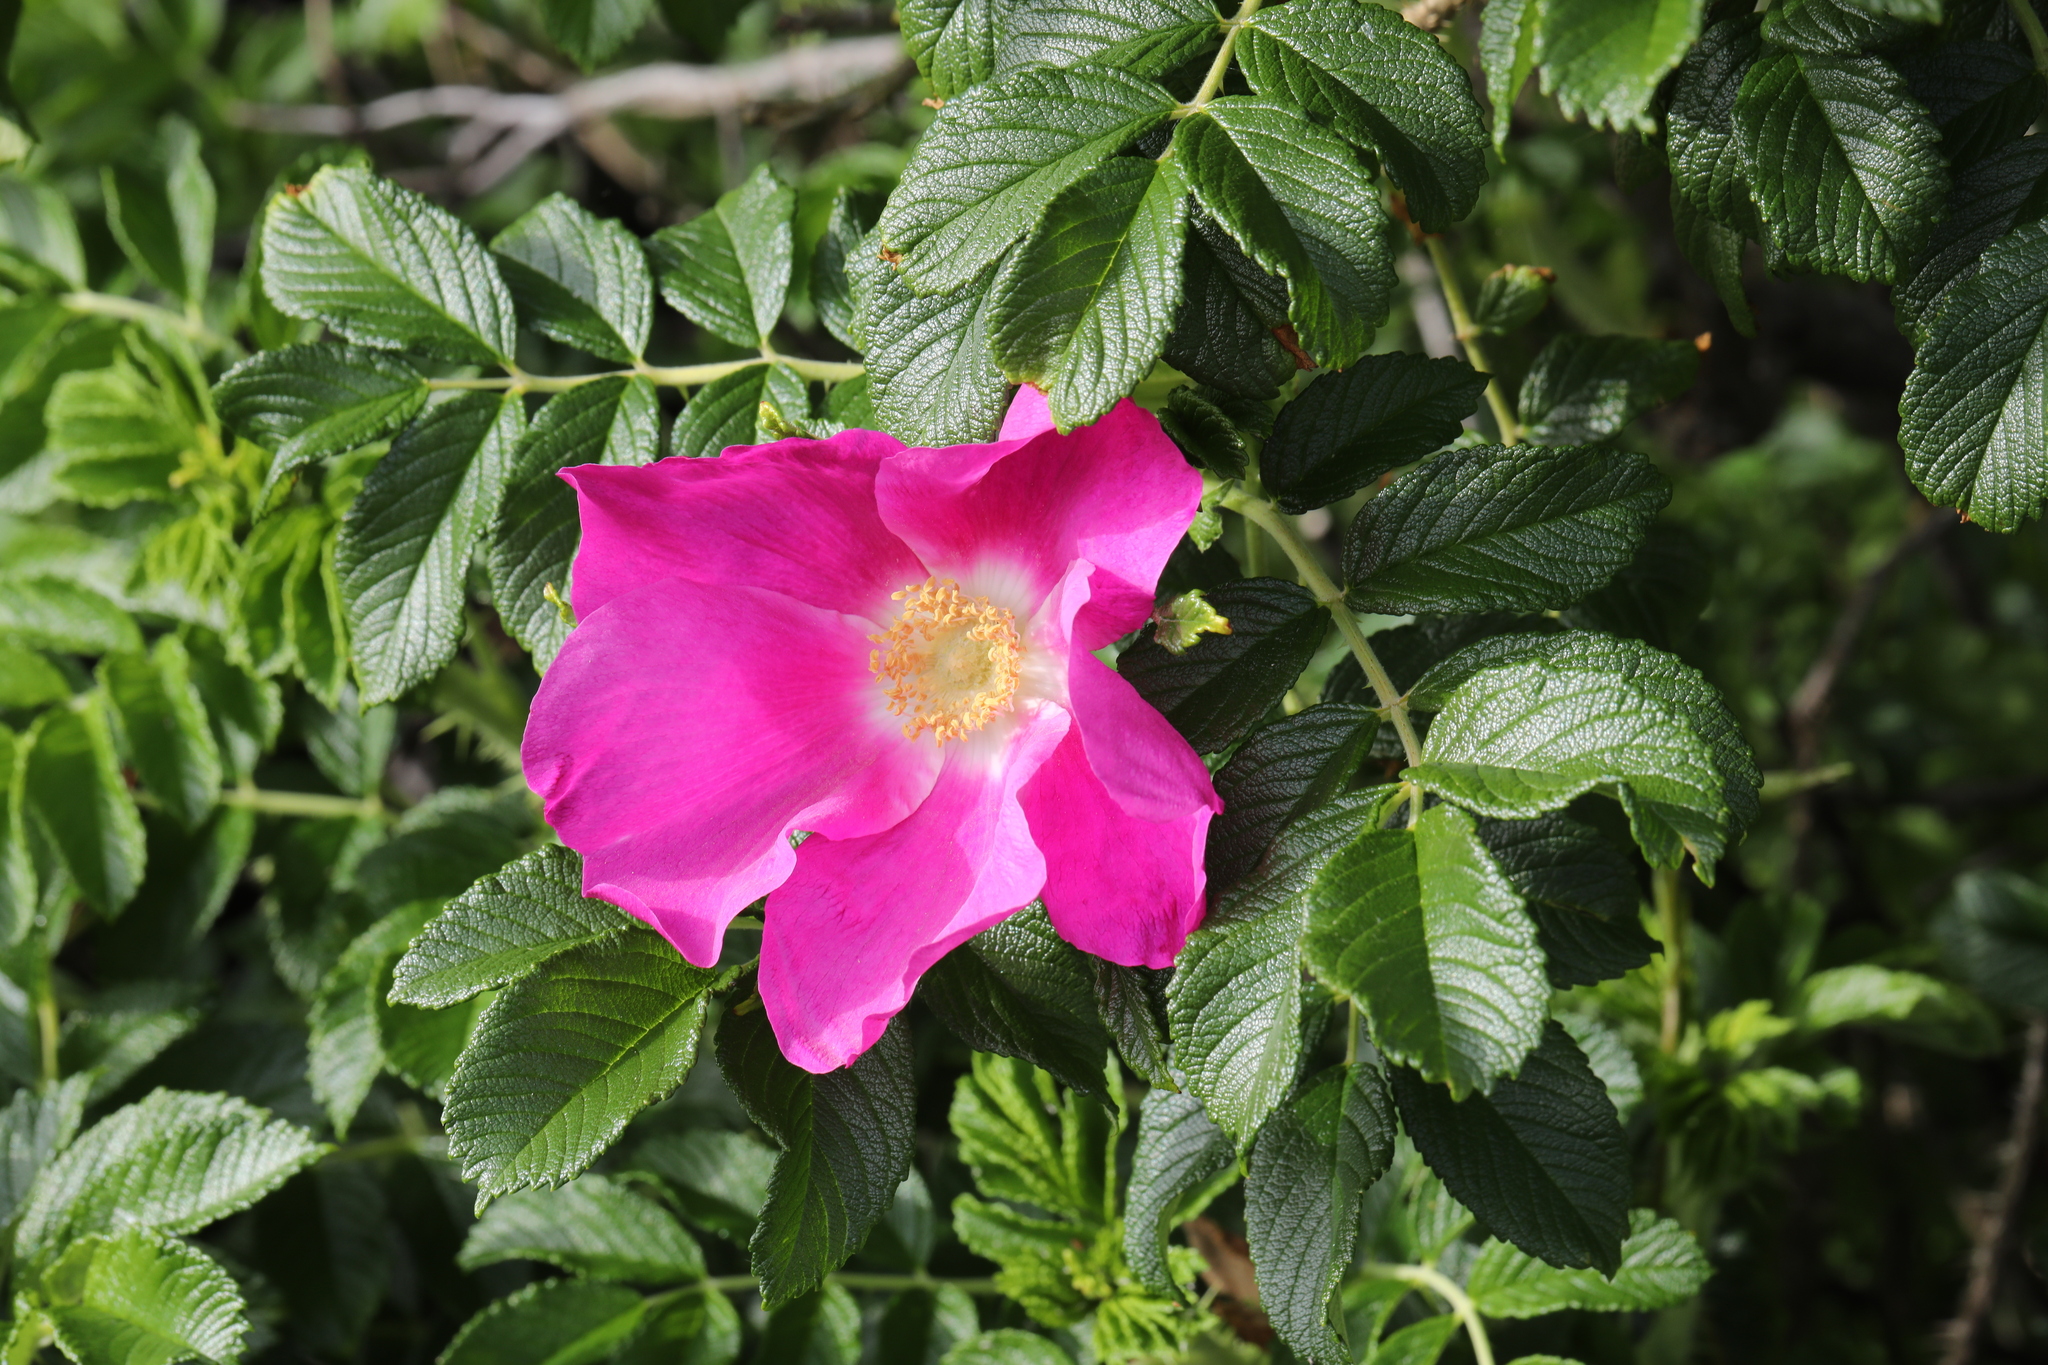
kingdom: Plantae
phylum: Tracheophyta
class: Magnoliopsida
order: Rosales
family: Rosaceae
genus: Rosa
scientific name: Rosa rugosa
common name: Japanese rose
